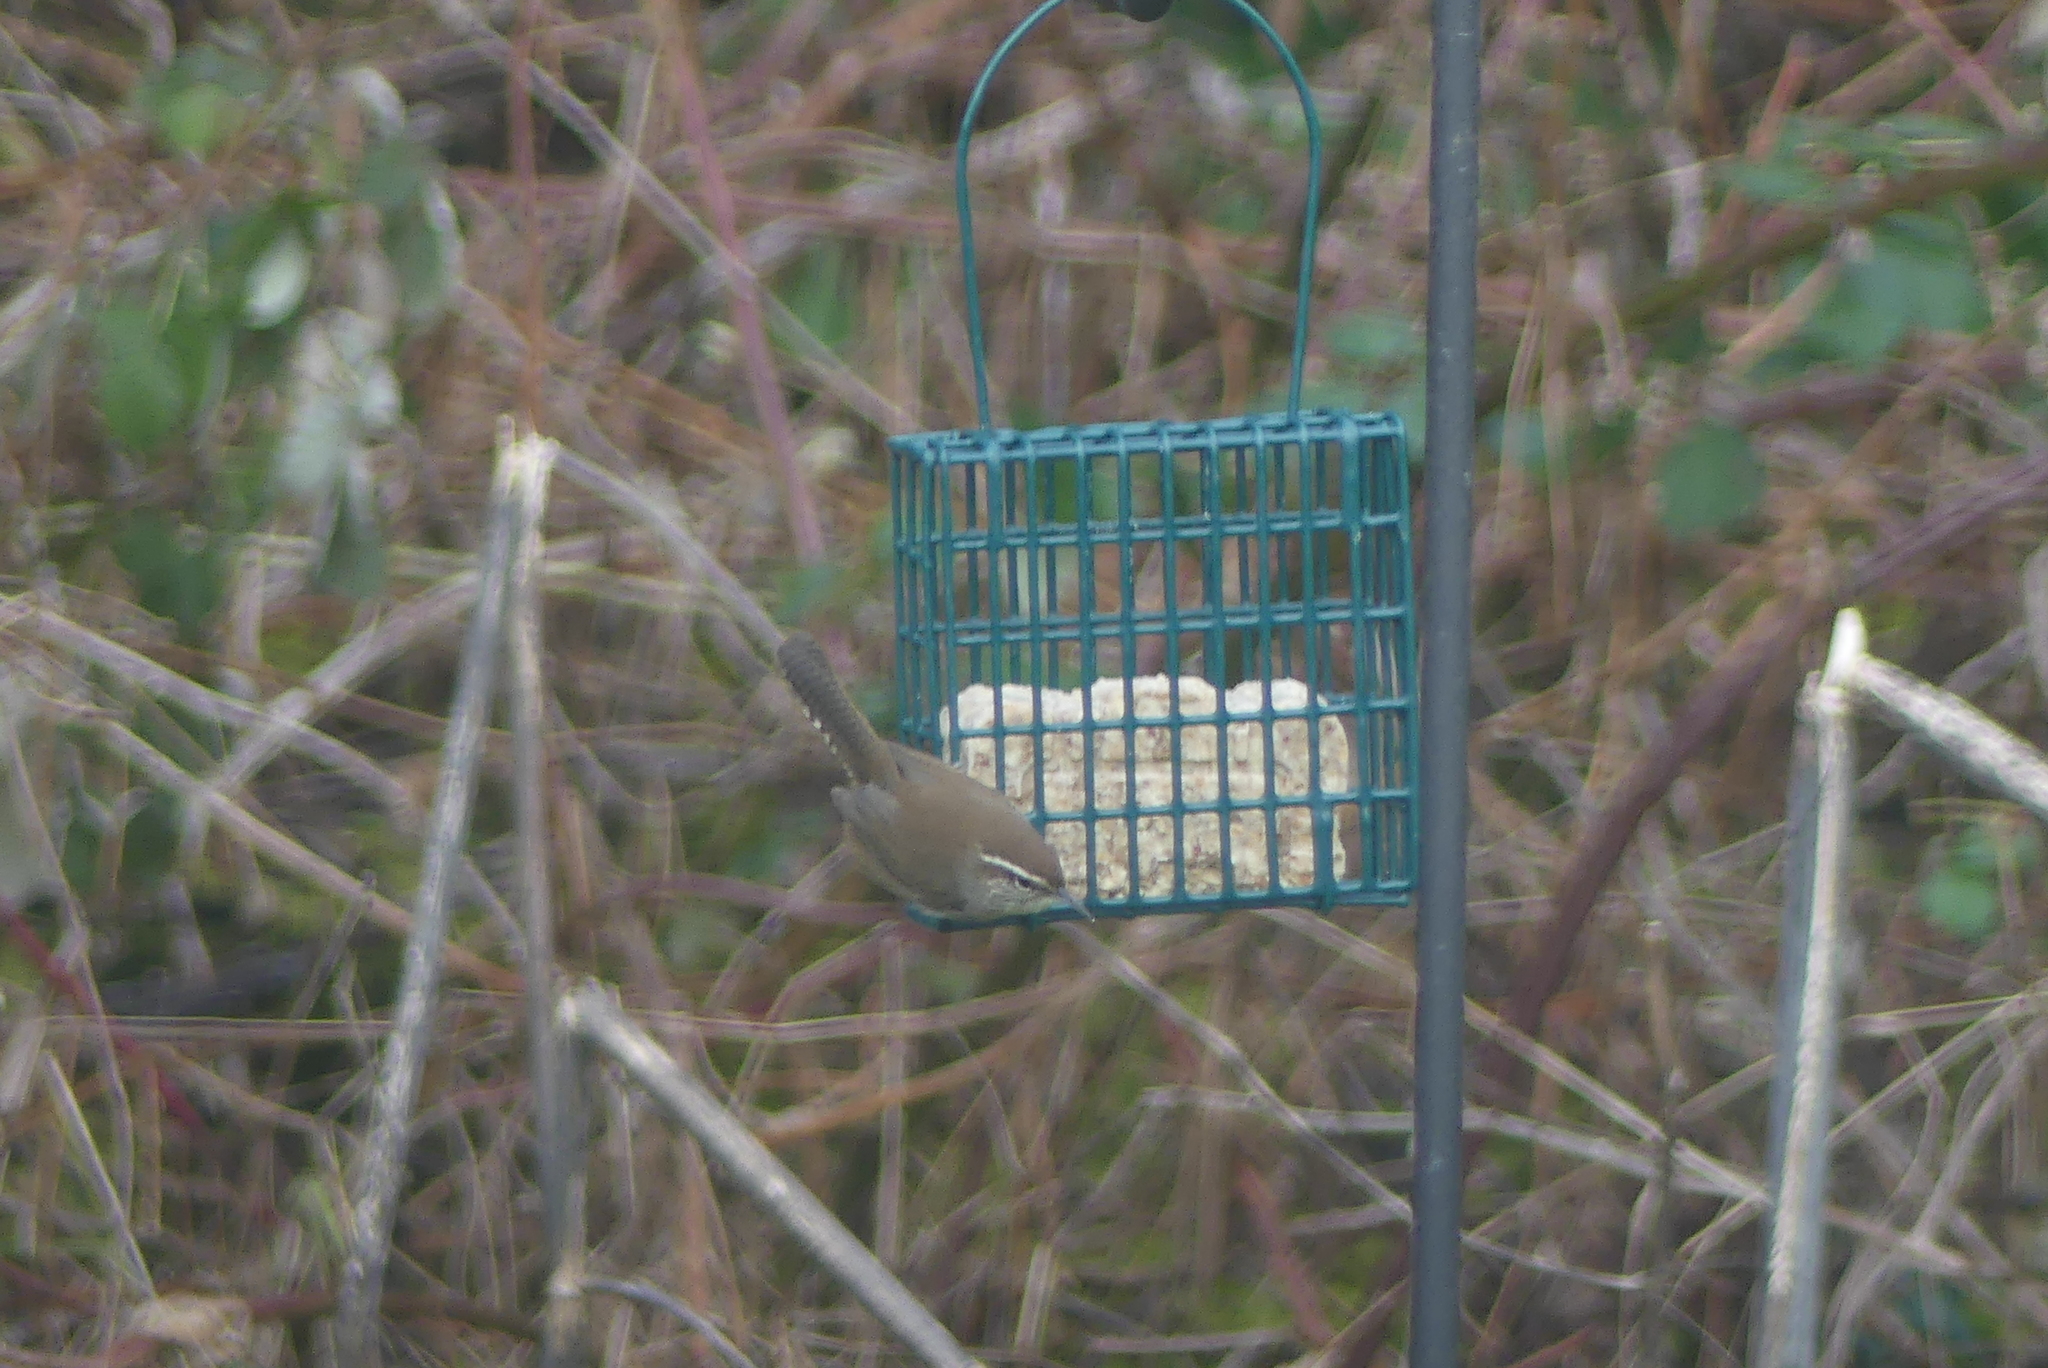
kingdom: Animalia
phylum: Chordata
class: Aves
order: Passeriformes
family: Troglodytidae
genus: Thryomanes
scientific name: Thryomanes bewickii
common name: Bewick's wren
